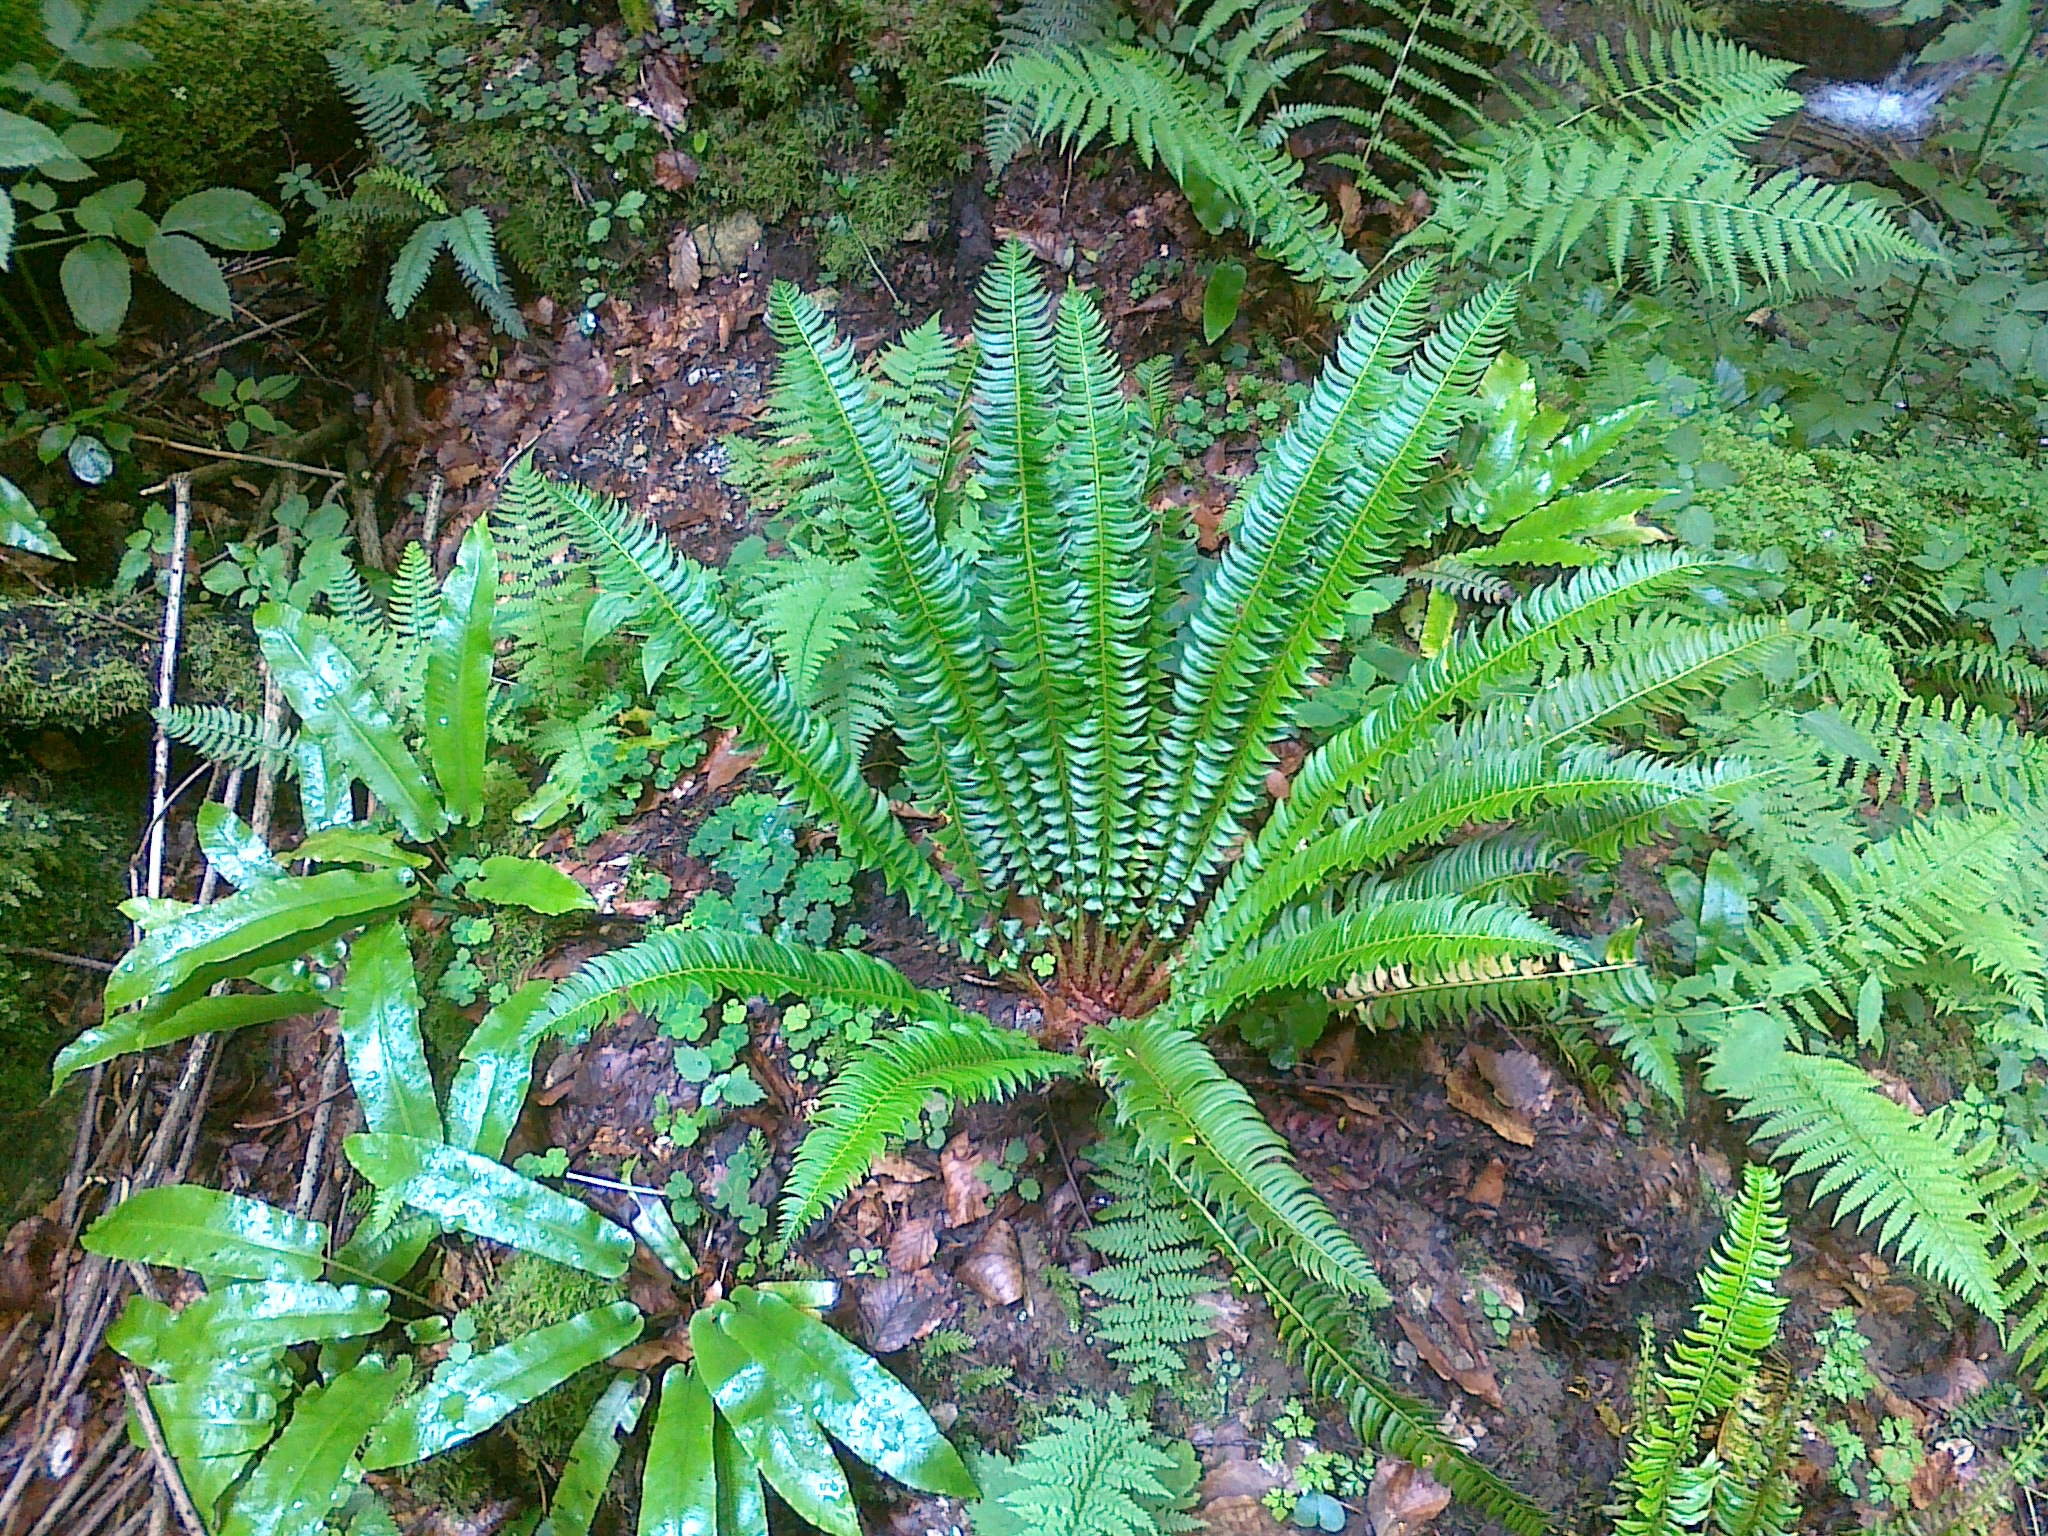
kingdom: Plantae
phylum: Tracheophyta
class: Polypodiopsida
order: Polypodiales
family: Dryopteridaceae
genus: Polystichum
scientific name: Polystichum lonchitis
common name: Holly fern
